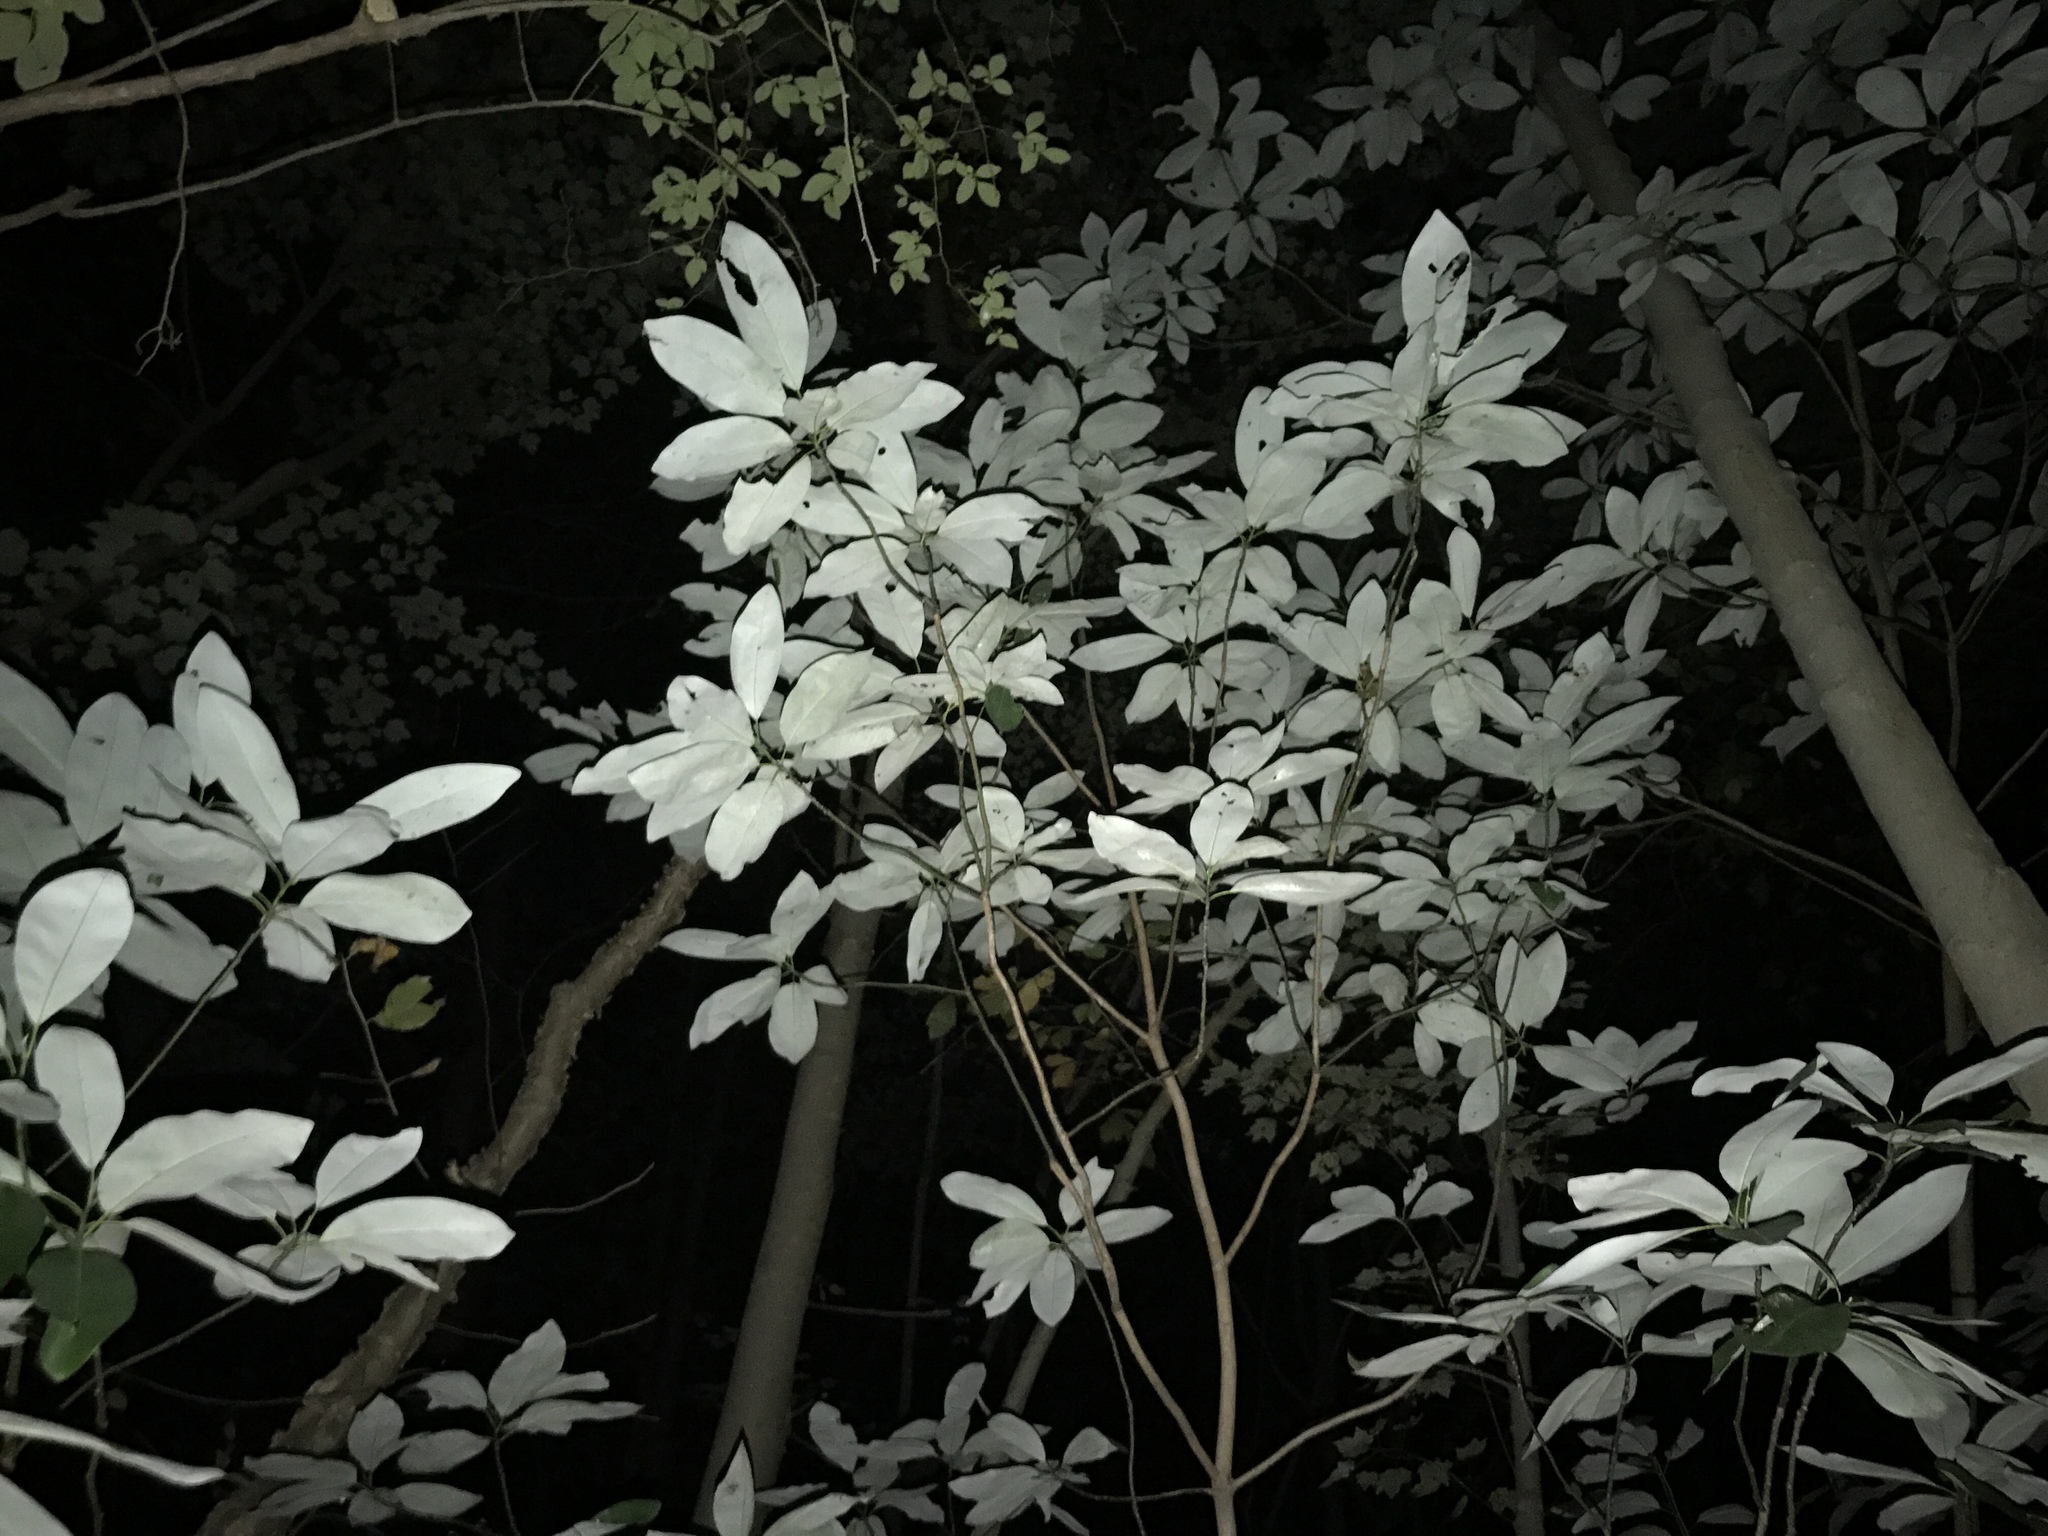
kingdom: Plantae
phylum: Tracheophyta
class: Magnoliopsida
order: Magnoliales
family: Magnoliaceae
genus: Magnolia
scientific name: Magnolia virginiana
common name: Swamp bay
